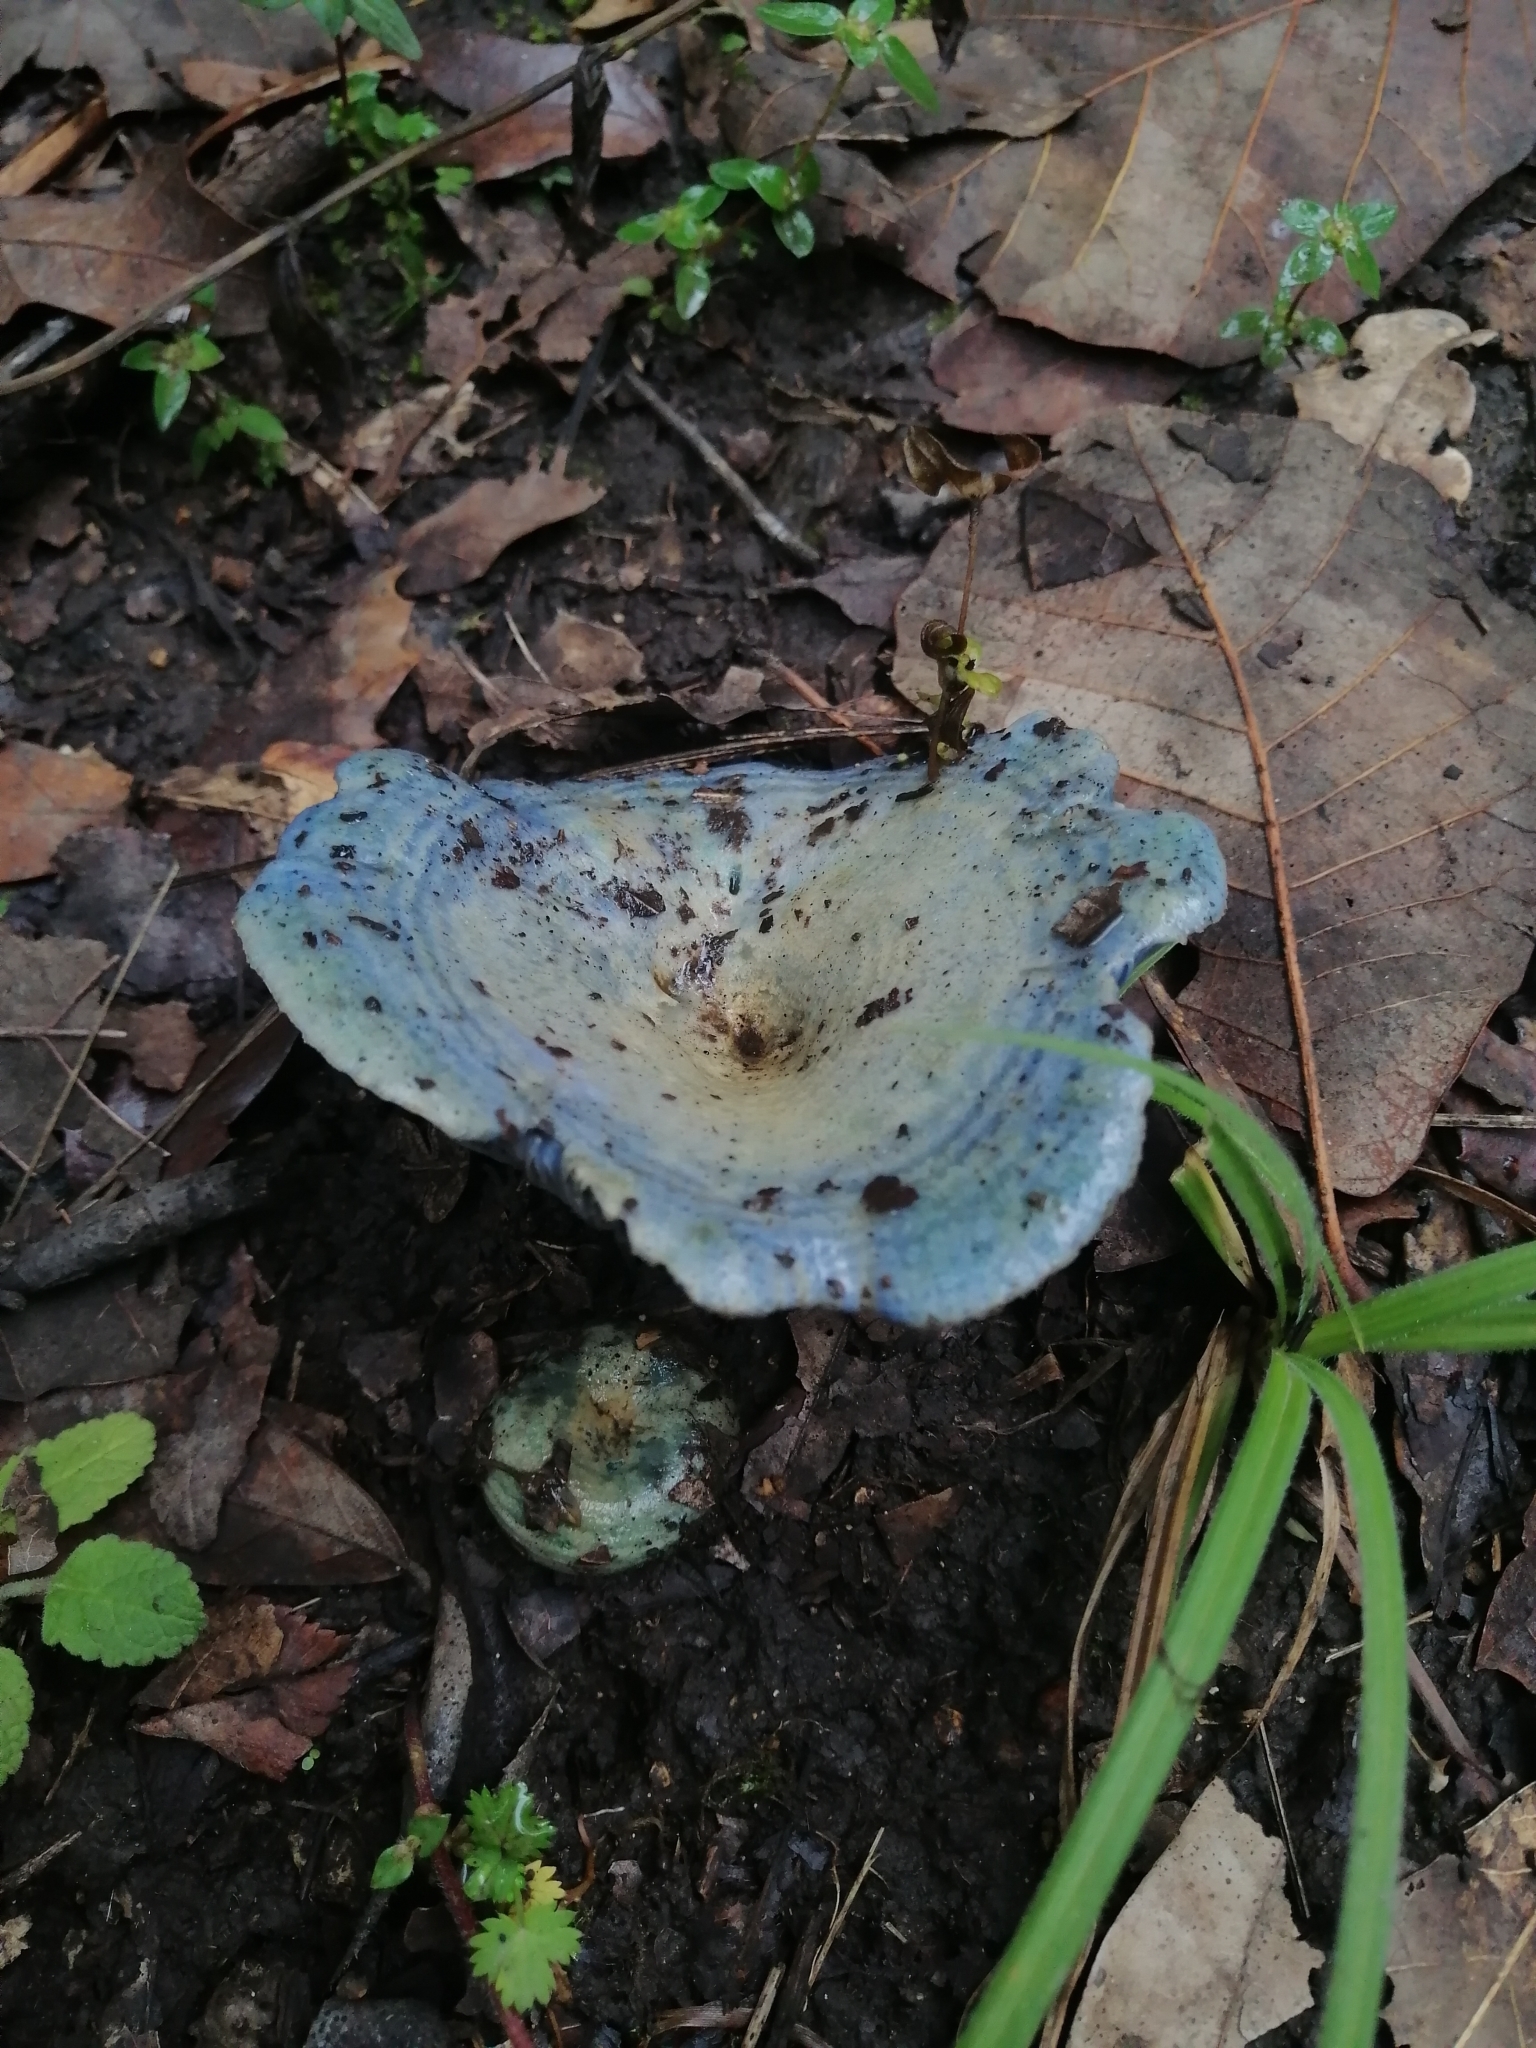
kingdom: Fungi
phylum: Basidiomycota
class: Agaricomycetes
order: Russulales
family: Russulaceae
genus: Lactarius
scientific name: Lactarius indigo
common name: Indigo milk cap
